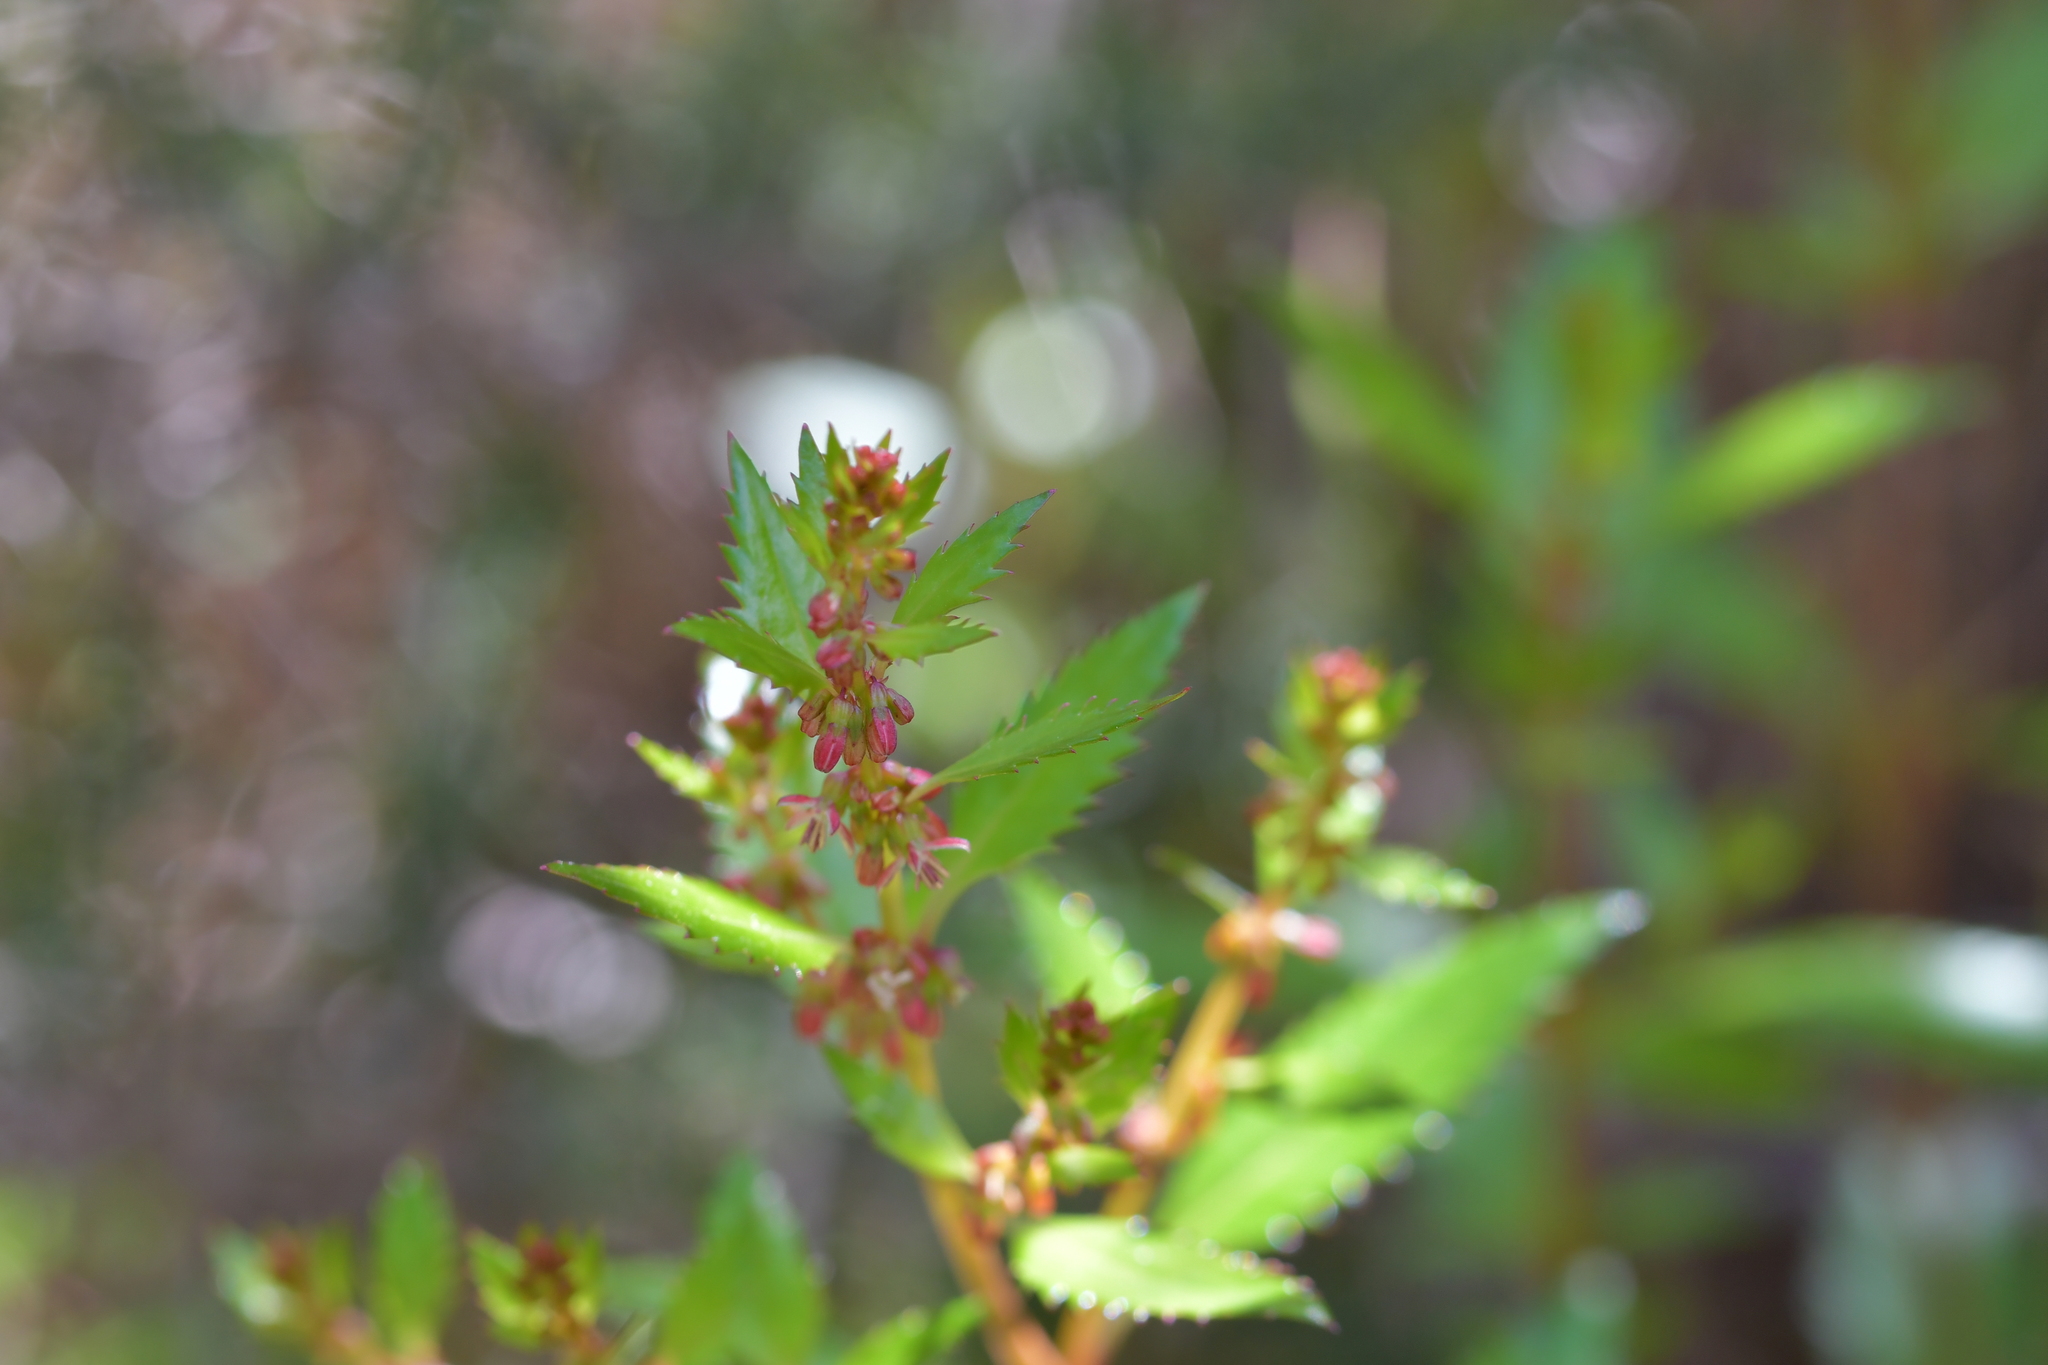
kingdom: Plantae
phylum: Tracheophyta
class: Magnoliopsida
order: Saxifragales
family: Haloragaceae
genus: Haloragis
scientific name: Haloragis erecta
